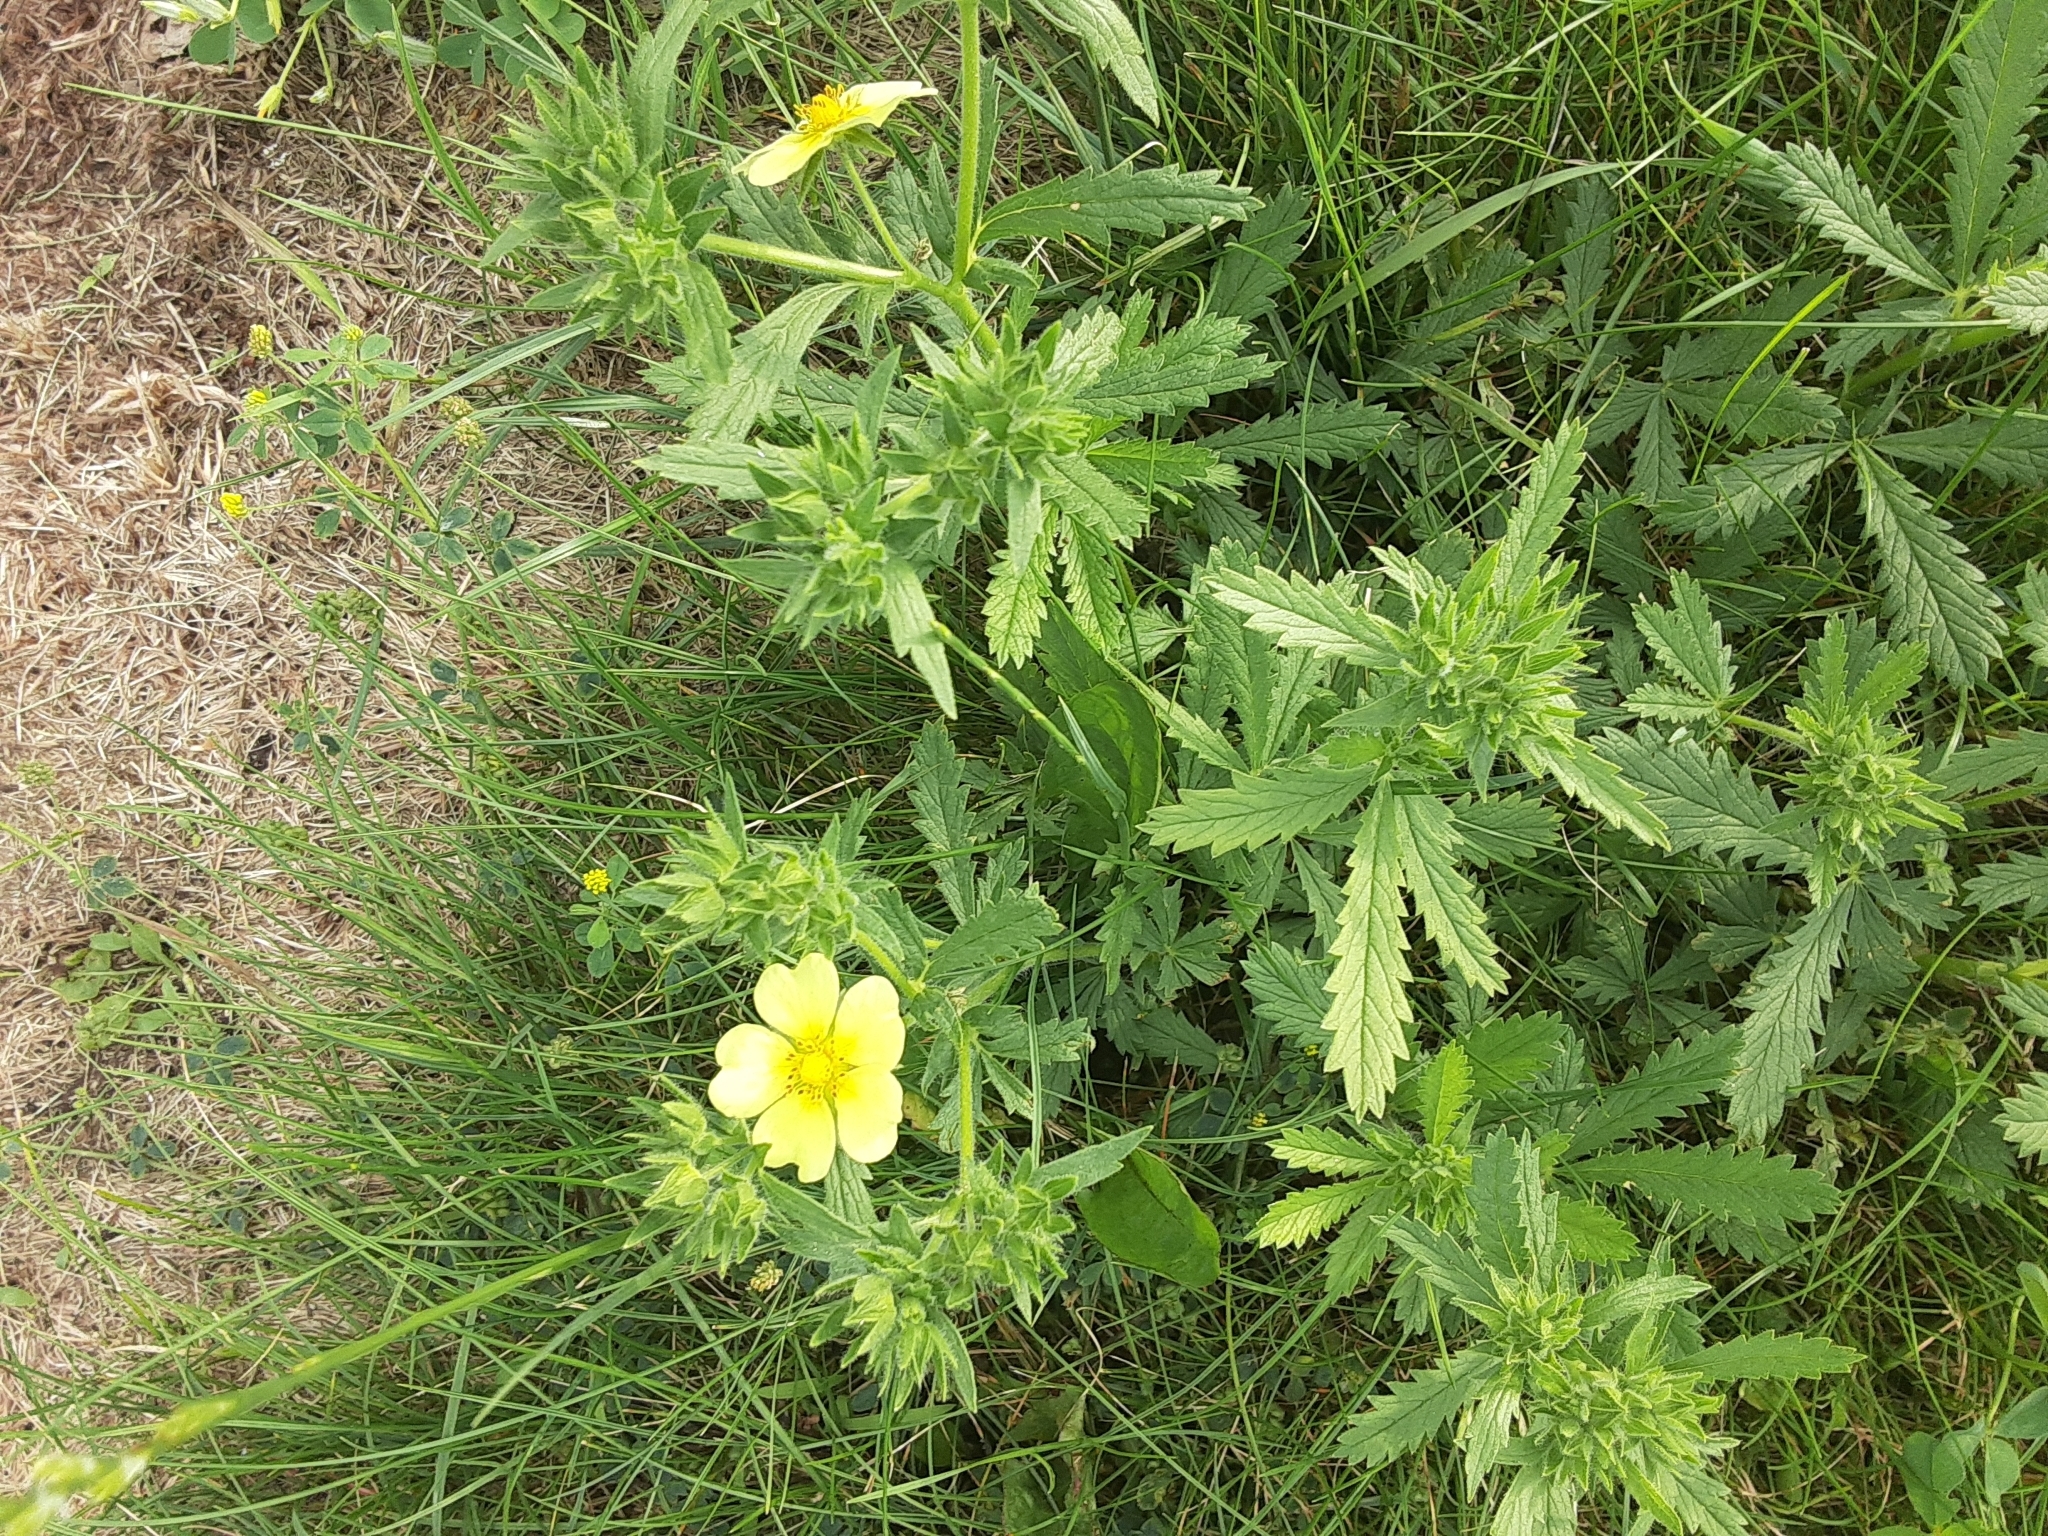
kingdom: Plantae
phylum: Tracheophyta
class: Magnoliopsida
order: Rosales
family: Rosaceae
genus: Potentilla
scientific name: Potentilla recta
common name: Sulphur cinquefoil
